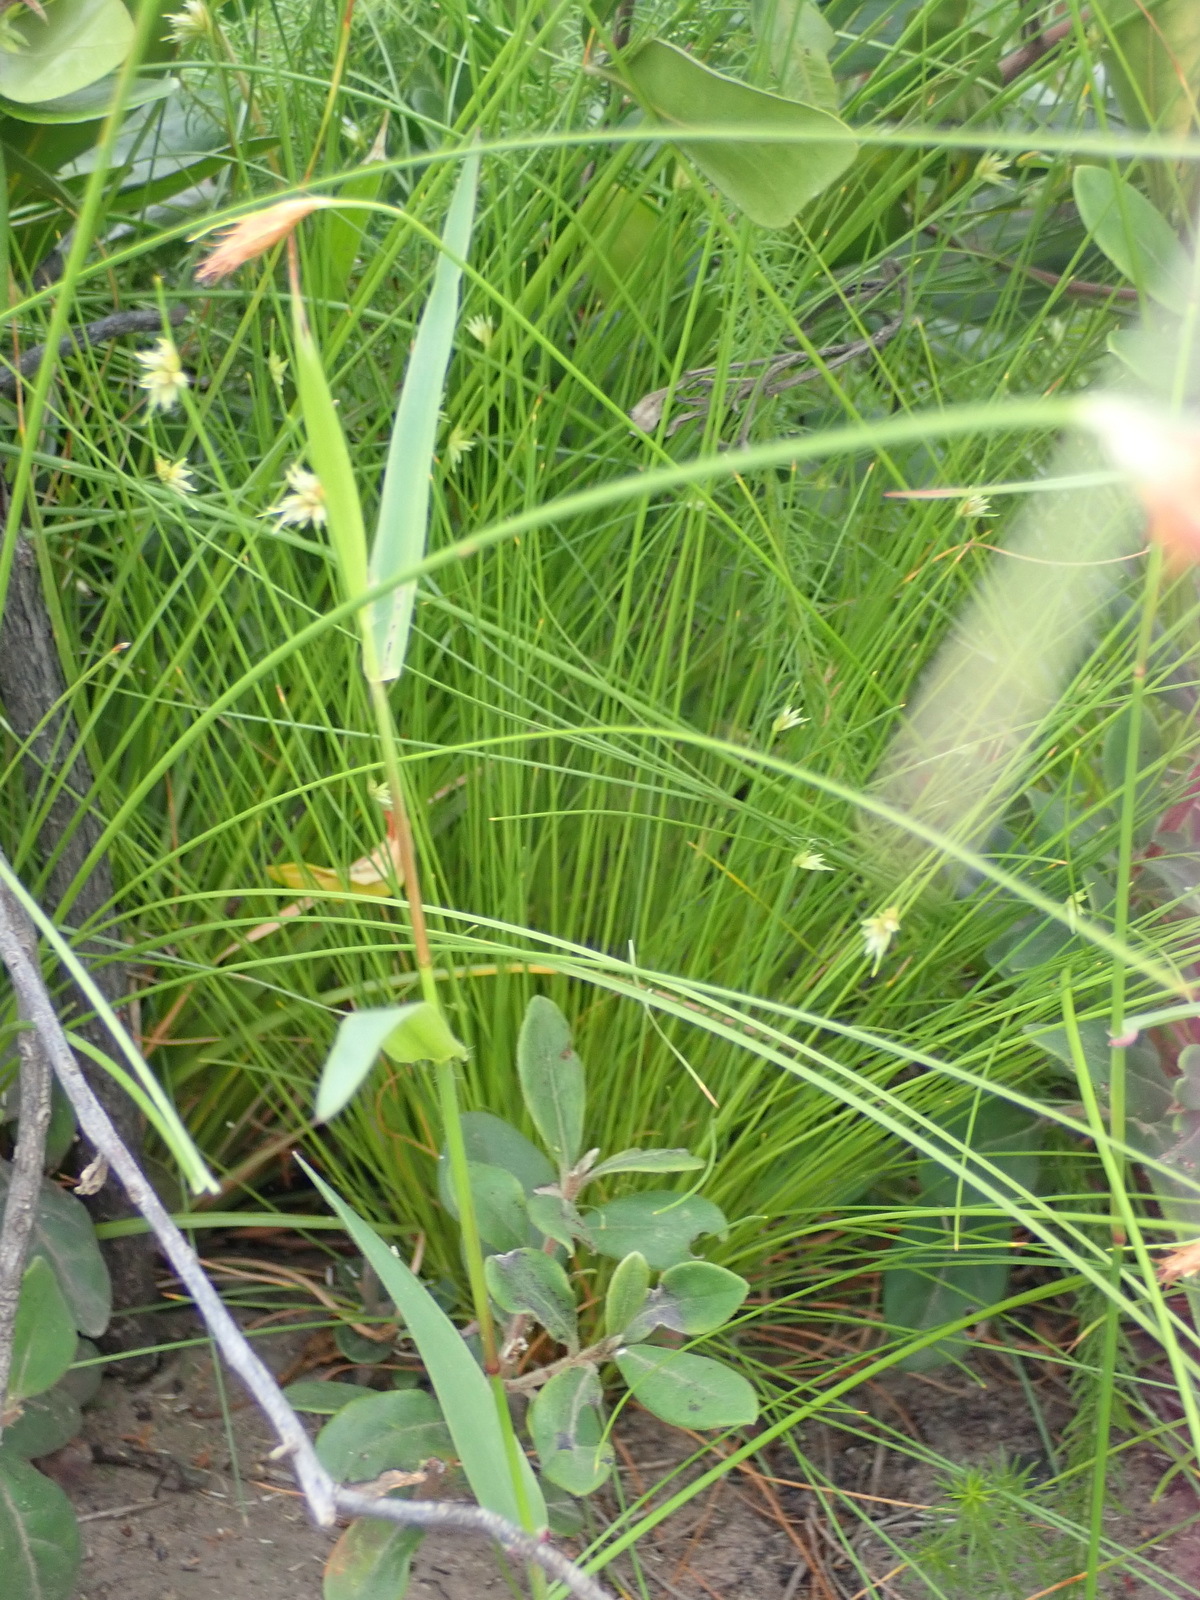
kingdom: Plantae
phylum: Tracheophyta
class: Liliopsida
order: Poales
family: Cyperaceae
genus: Ficinia
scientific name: Ficinia albicans
